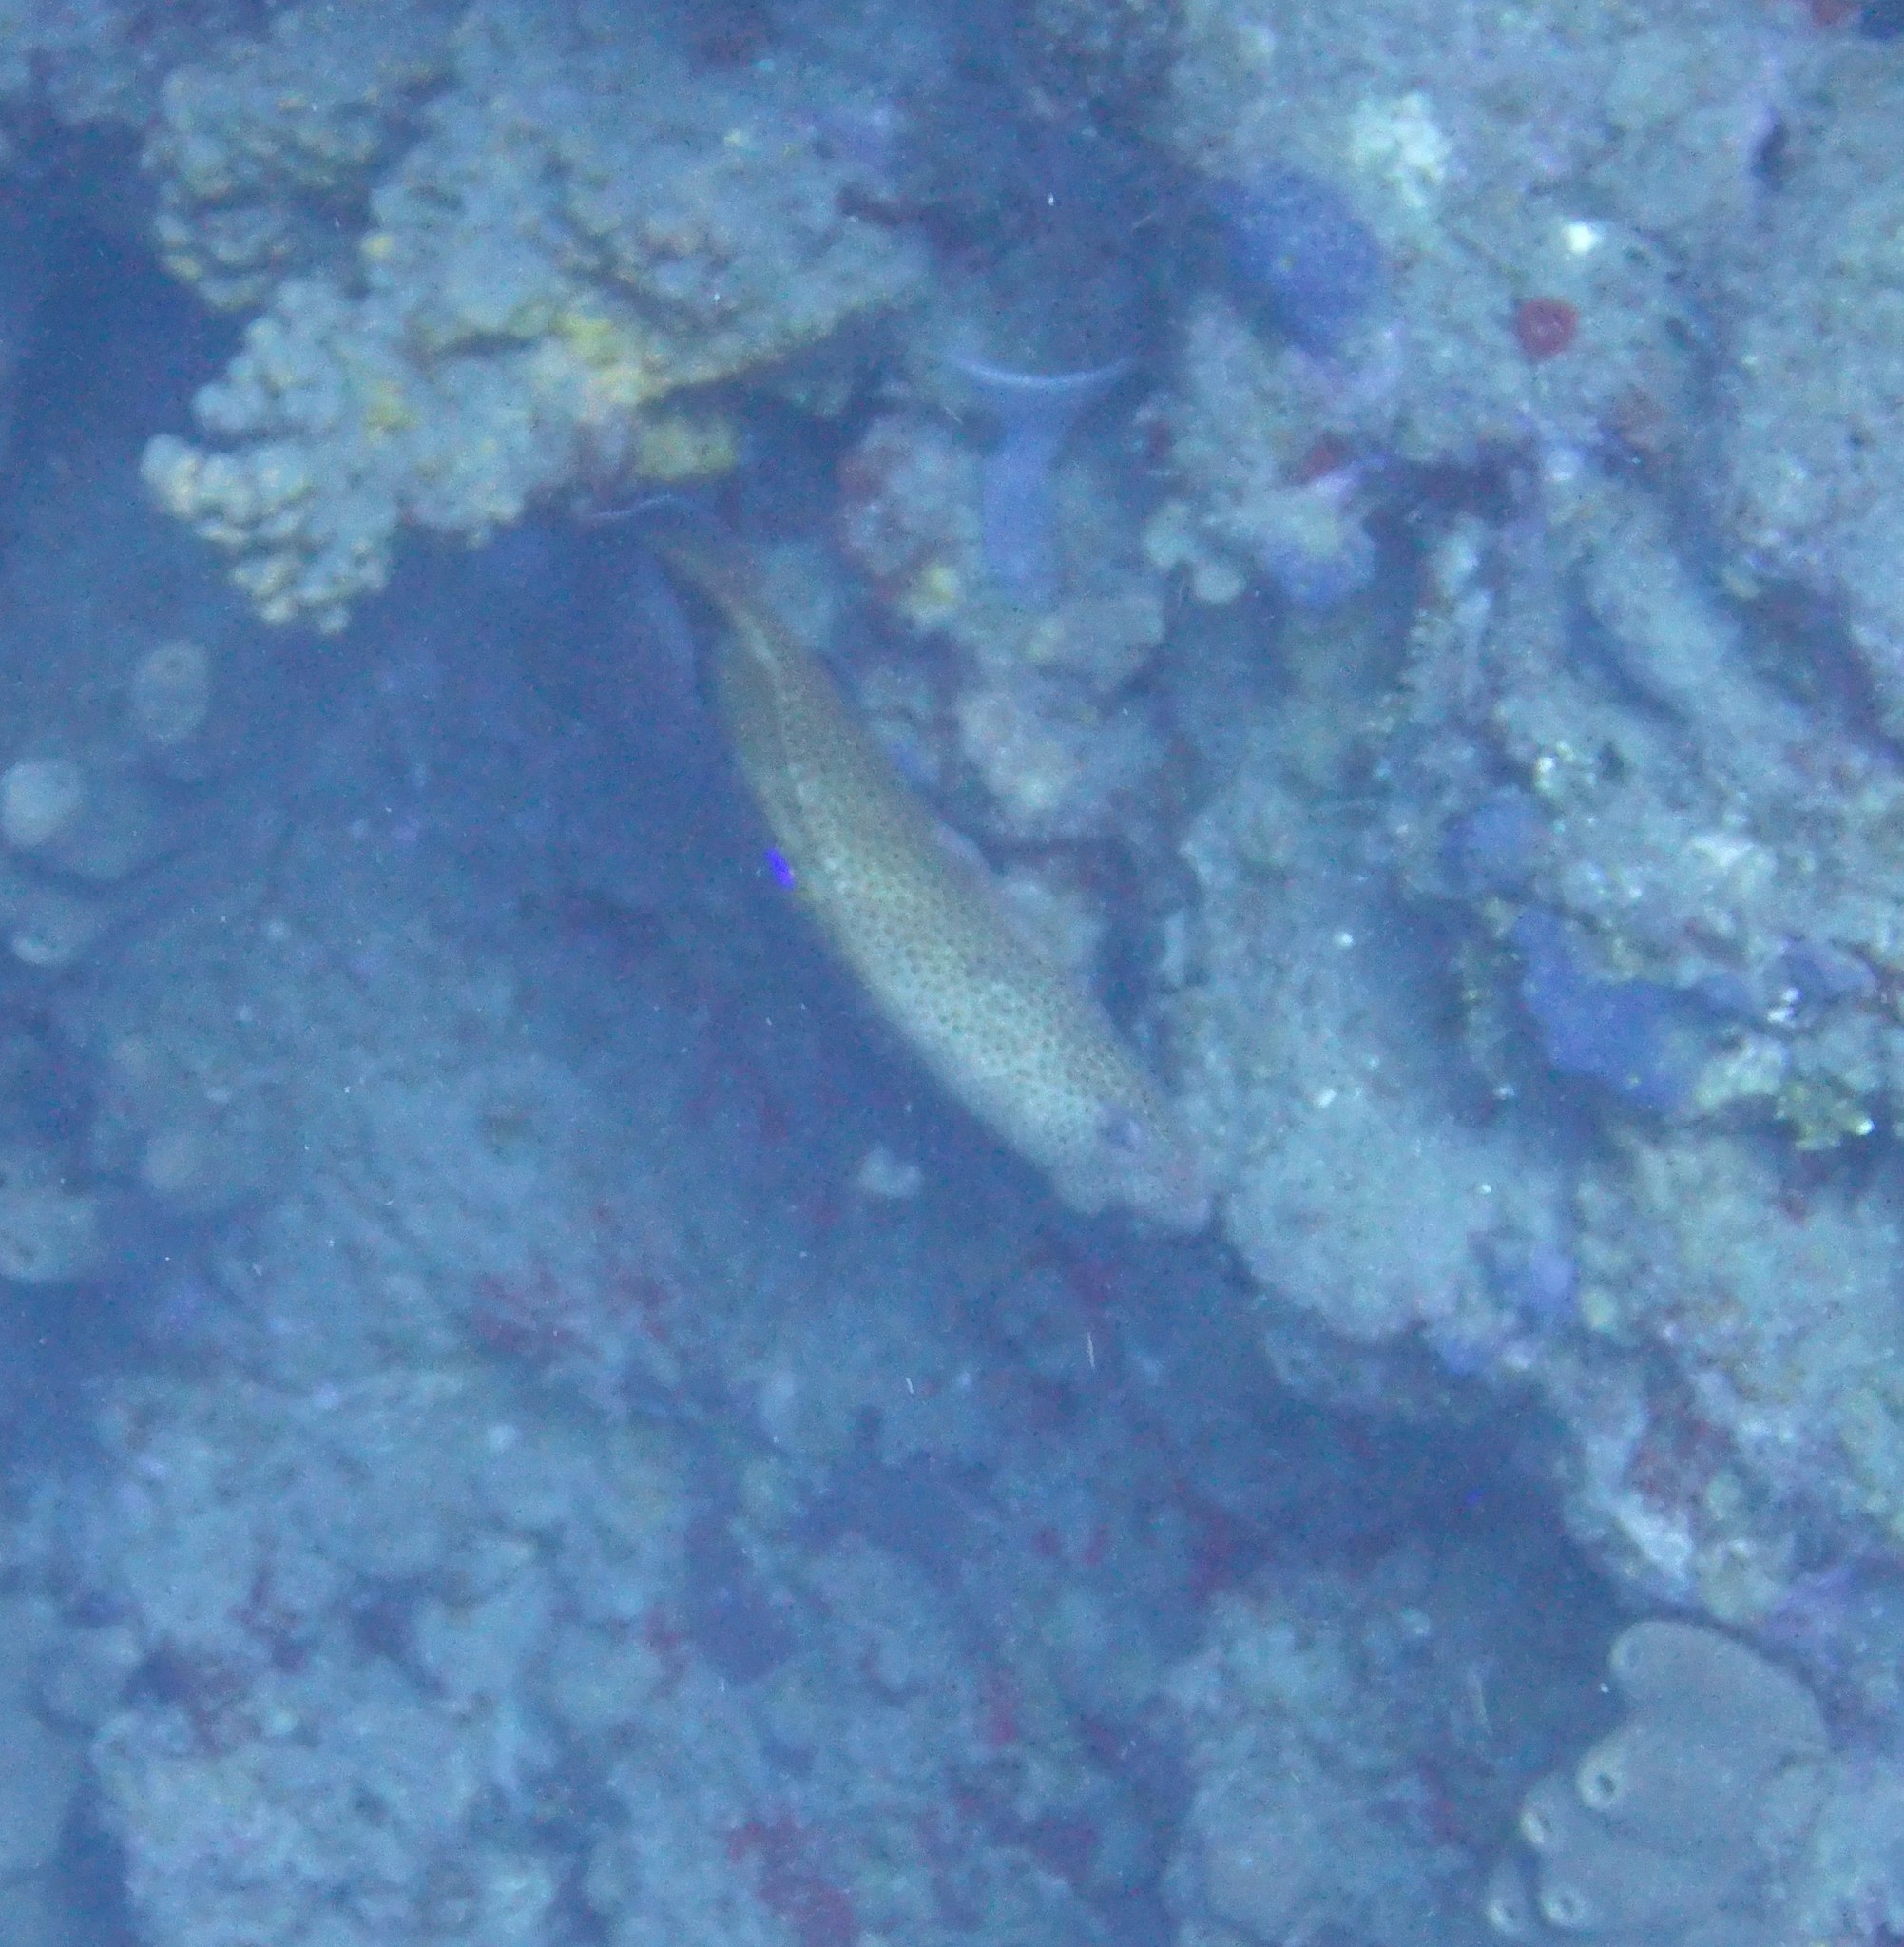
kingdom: Animalia
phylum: Chordata
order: Perciformes
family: Serranidae
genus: Cephalopholis
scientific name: Cephalopholis cruentata
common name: Graysby
